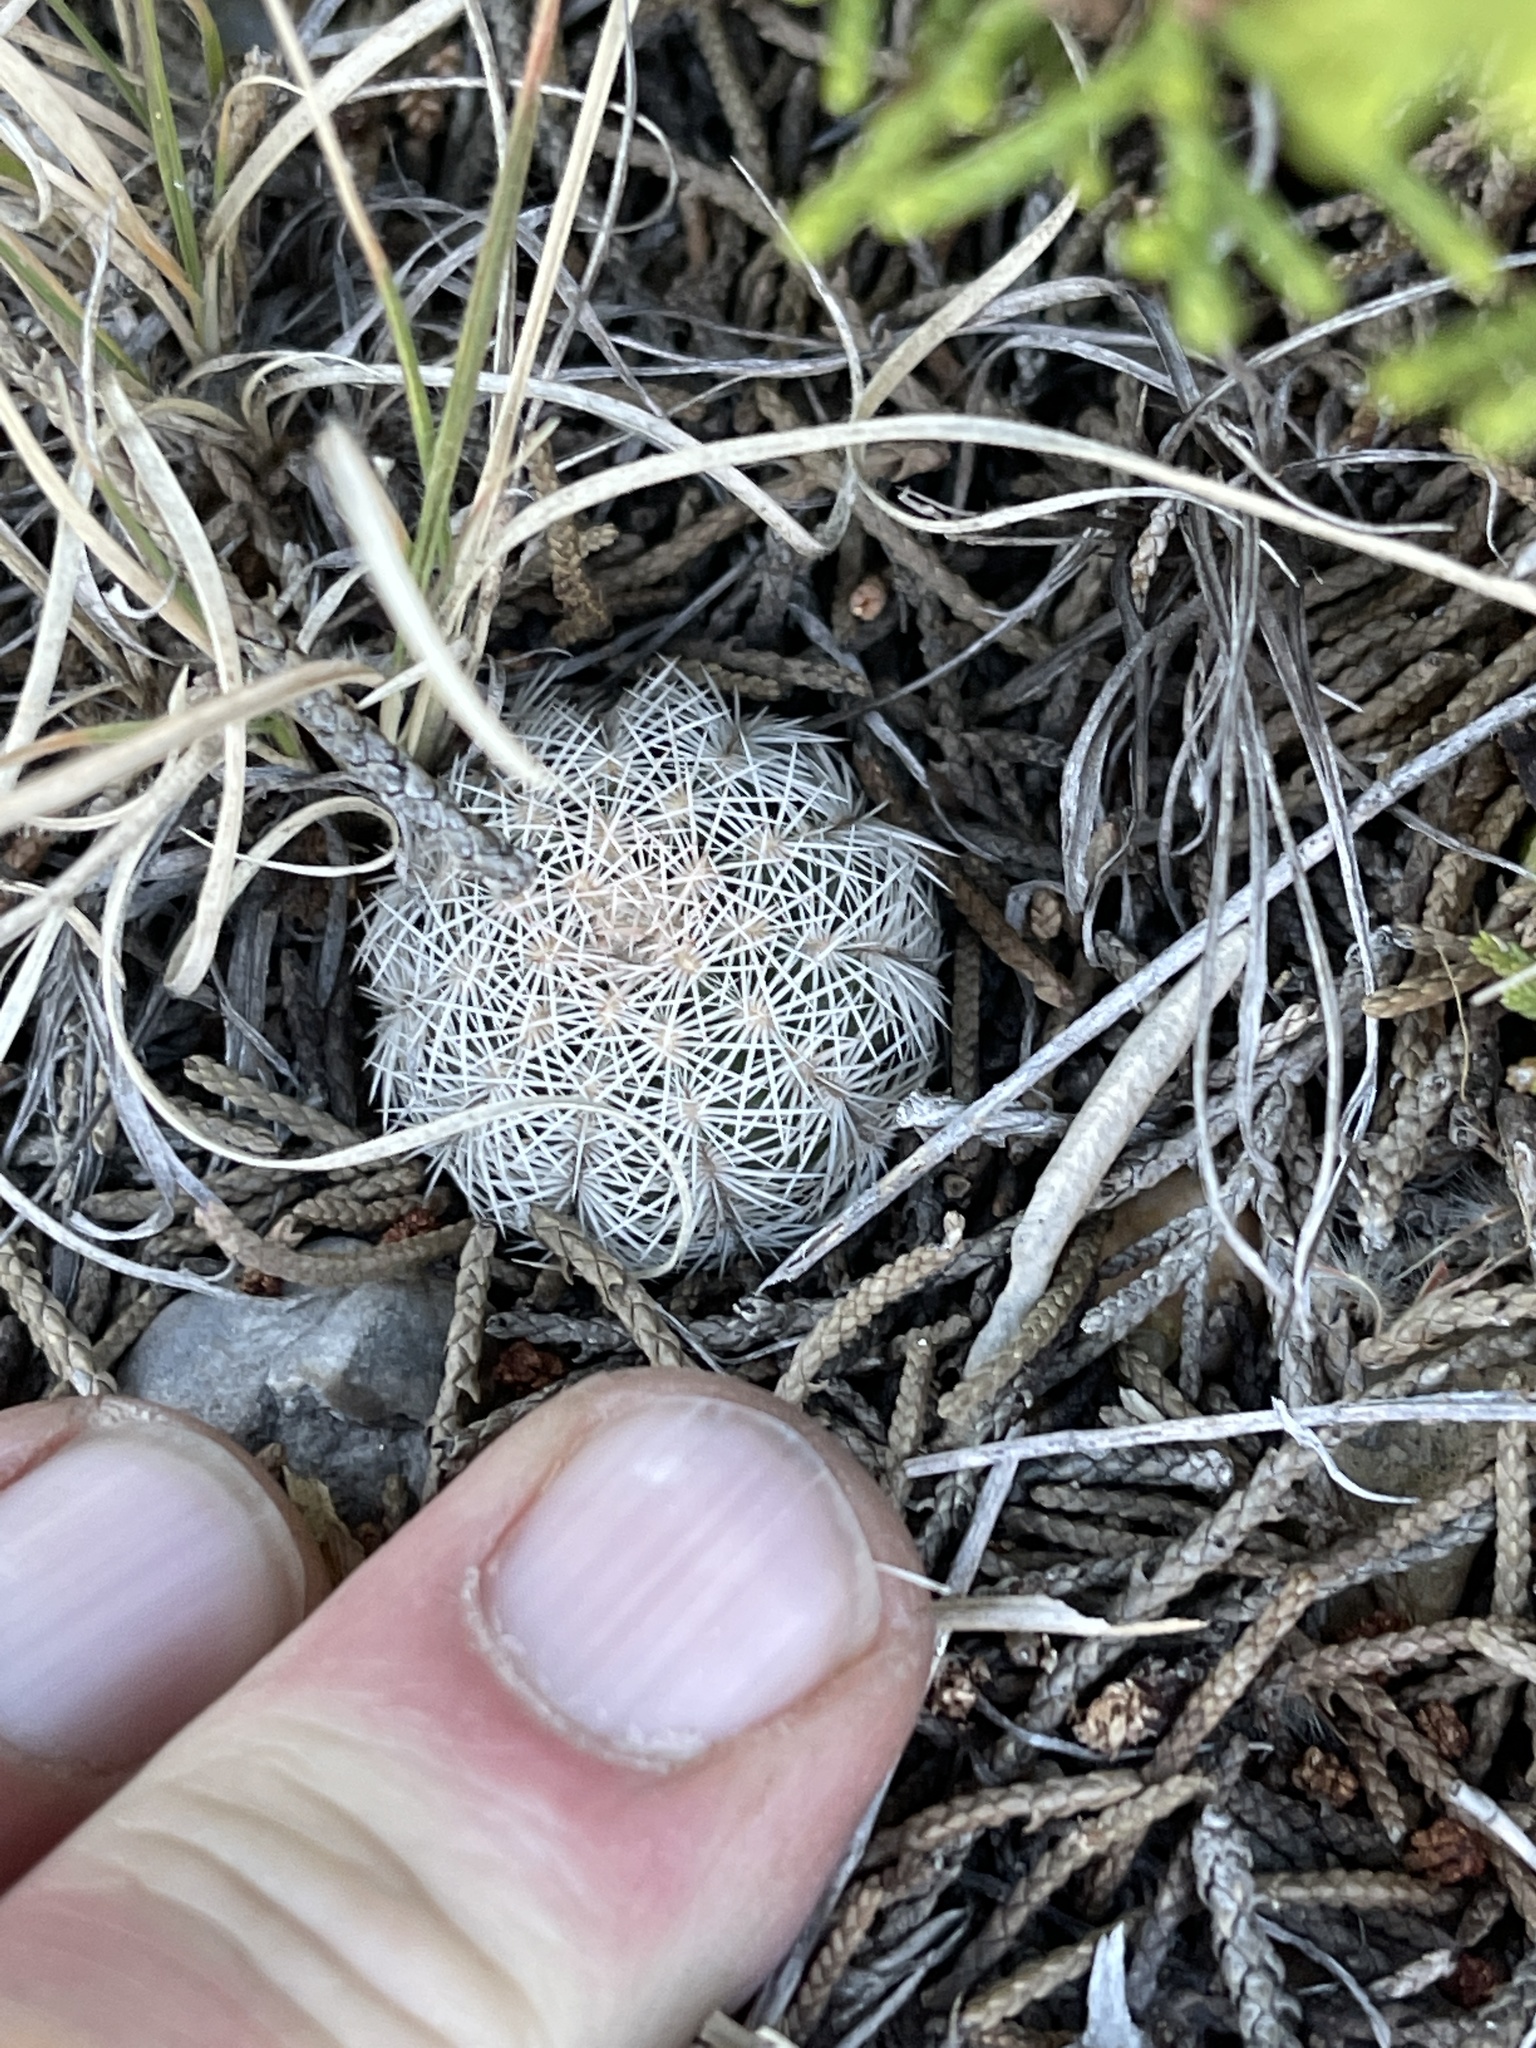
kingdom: Plantae
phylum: Tracheophyta
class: Magnoliopsida
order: Caryophyllales
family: Cactaceae
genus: Echinocereus
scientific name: Echinocereus reichenbachii
